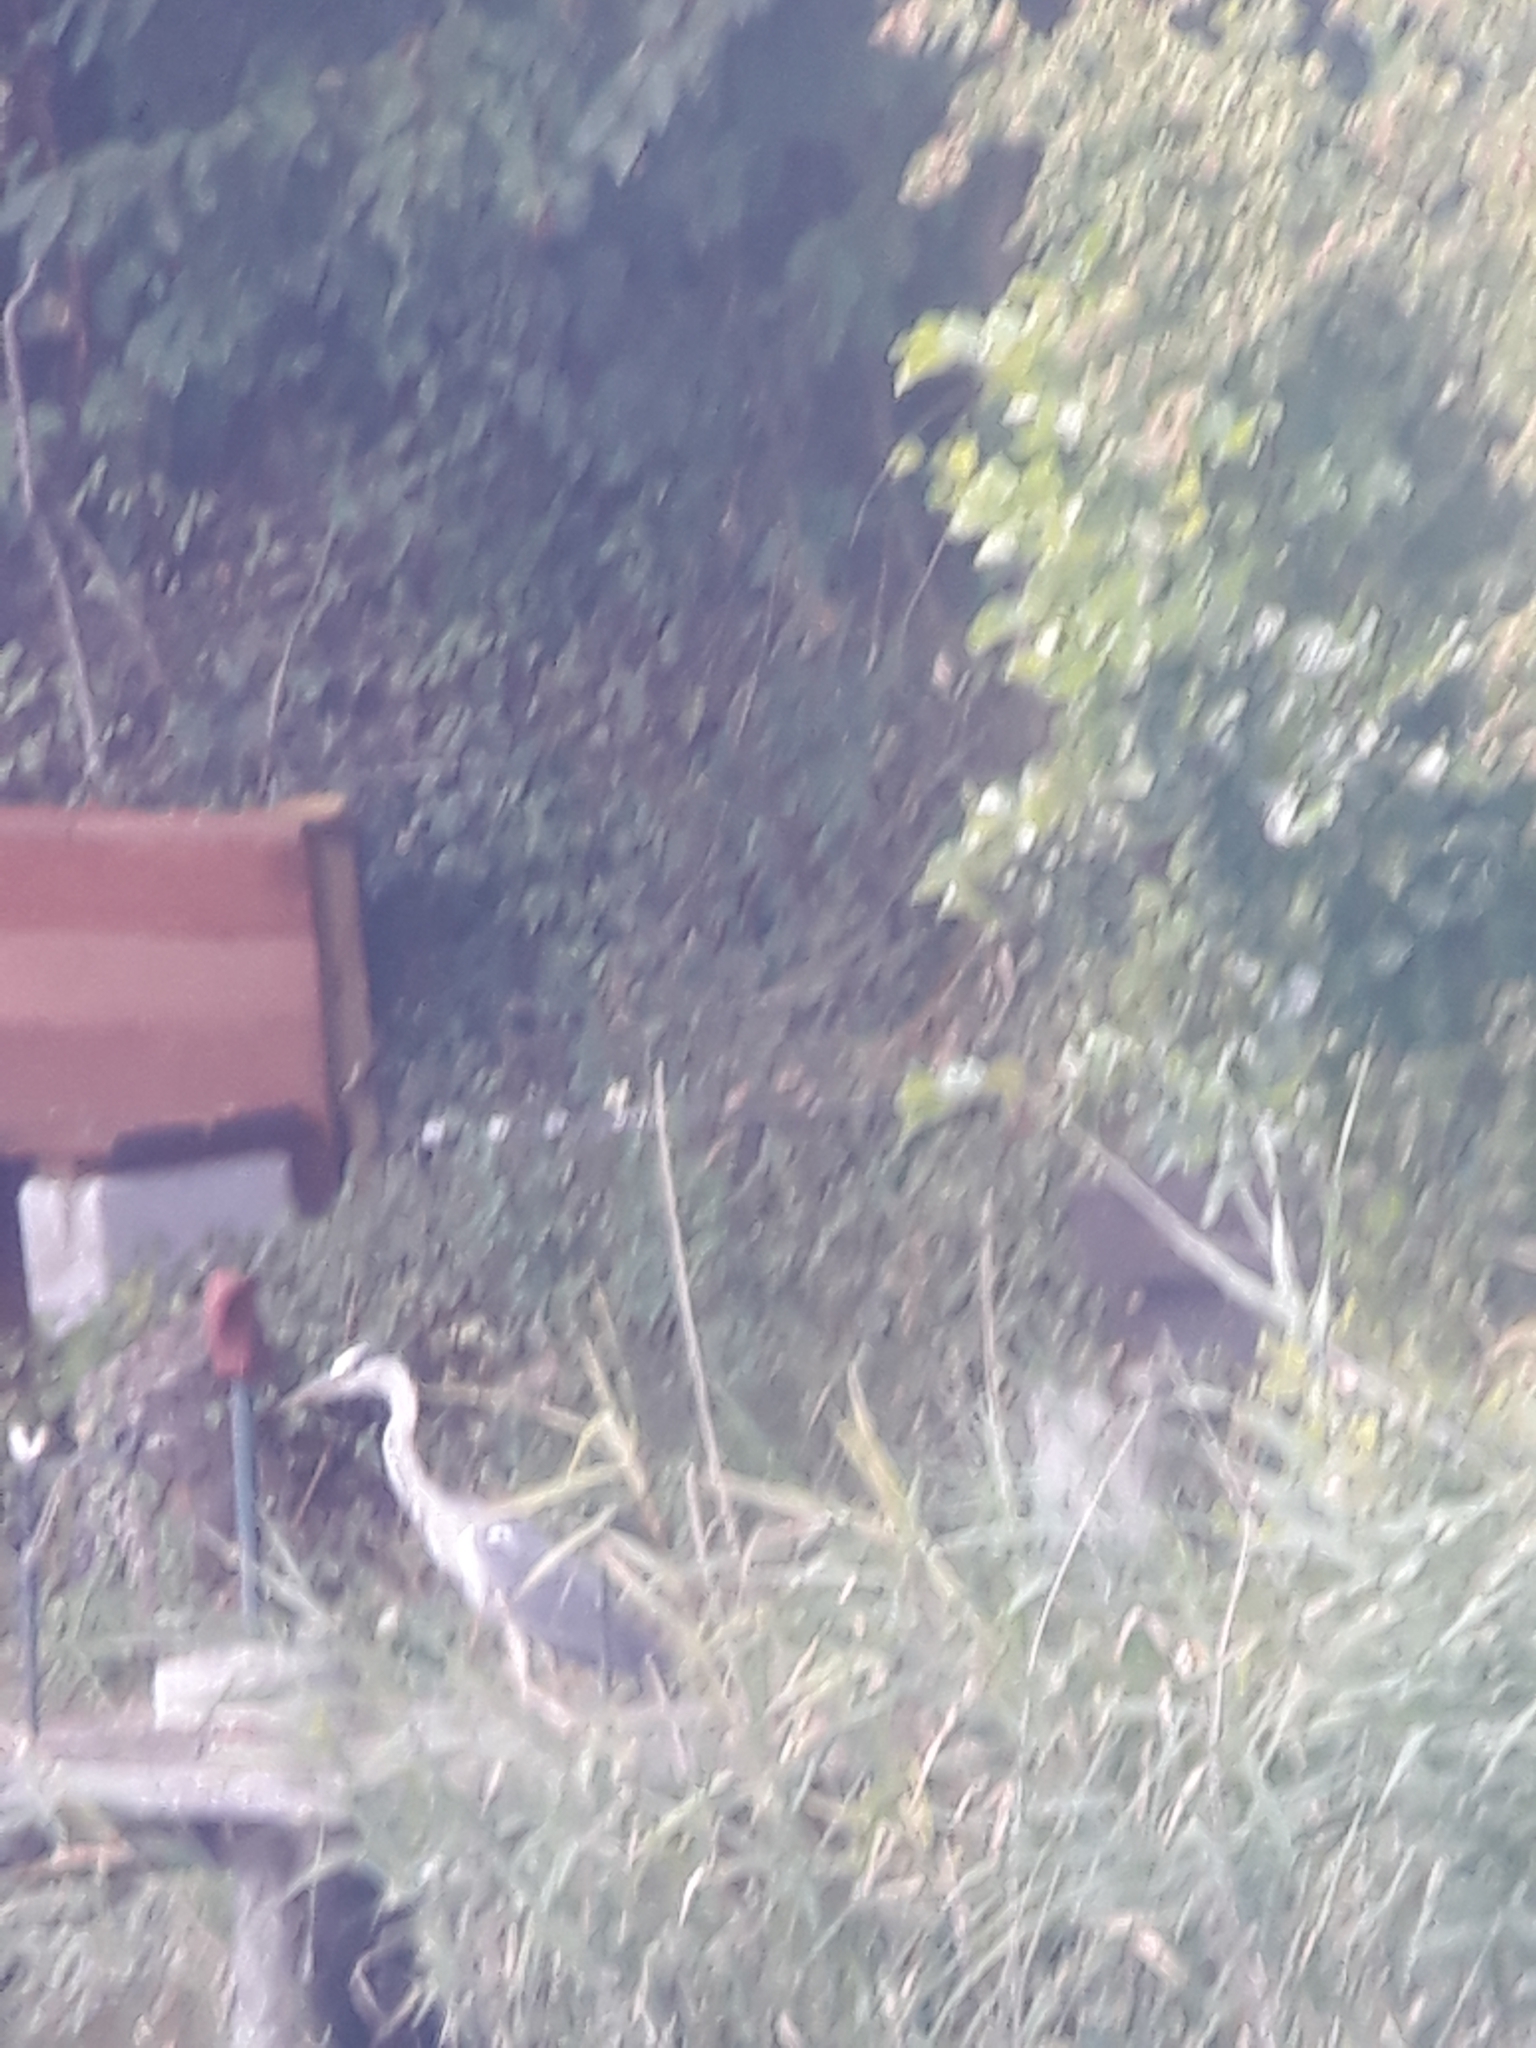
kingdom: Animalia
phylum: Chordata
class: Aves
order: Pelecaniformes
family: Ardeidae
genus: Ardea
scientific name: Ardea cinerea
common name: Grey heron
